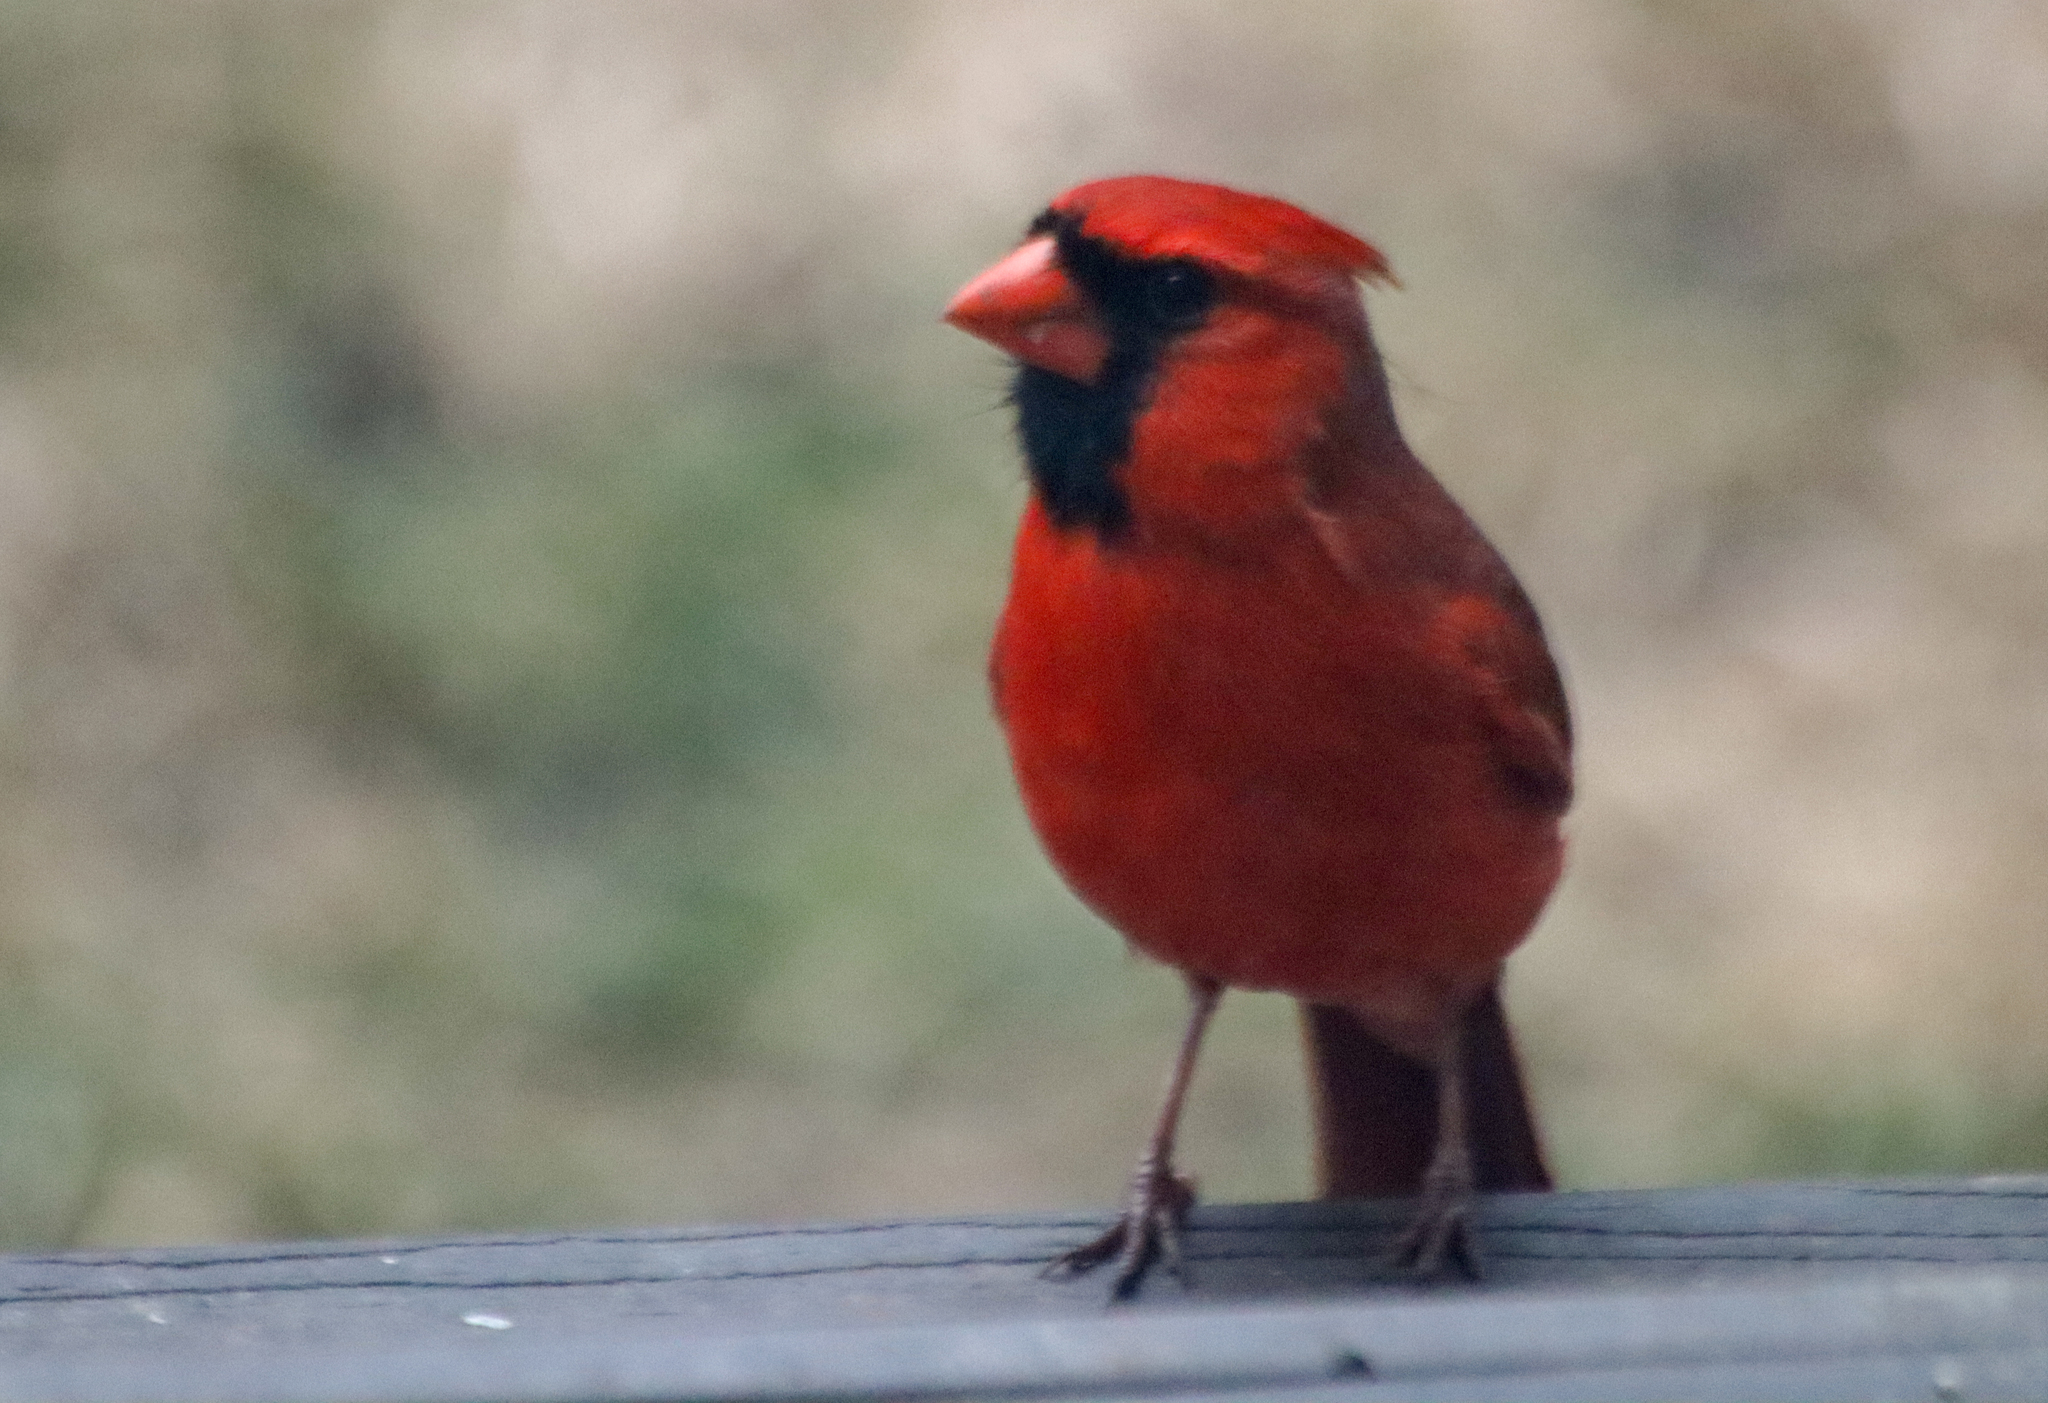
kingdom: Animalia
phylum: Chordata
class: Aves
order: Passeriformes
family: Cardinalidae
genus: Cardinalis
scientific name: Cardinalis cardinalis
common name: Northern cardinal
